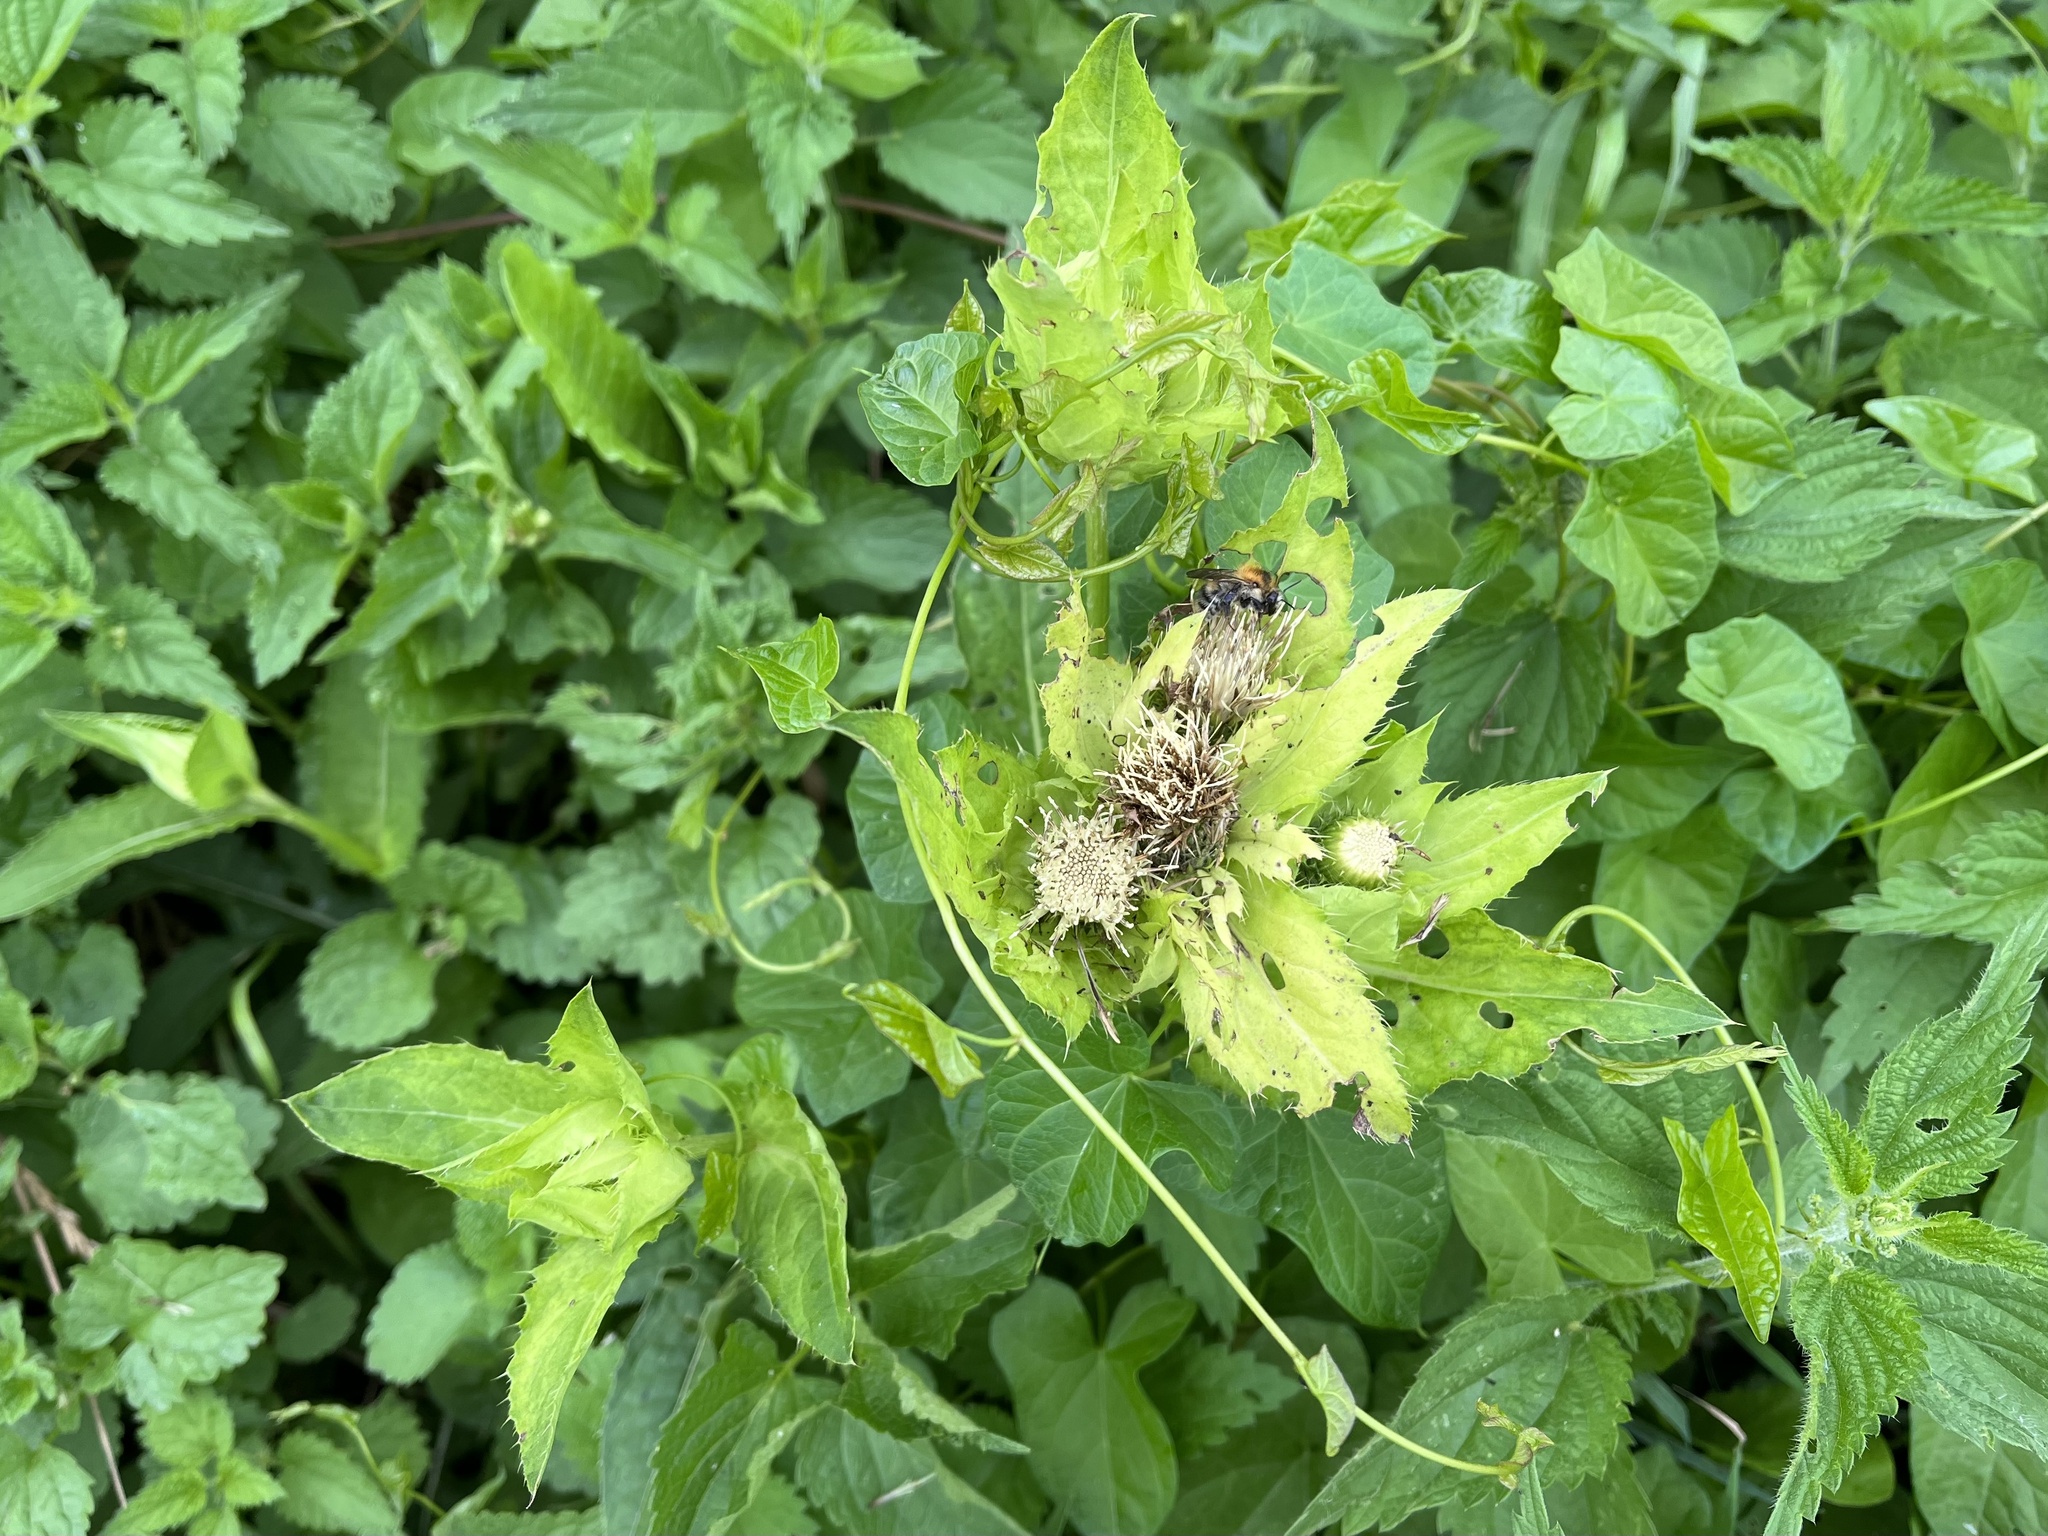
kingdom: Plantae
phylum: Tracheophyta
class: Magnoliopsida
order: Asterales
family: Asteraceae
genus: Cirsium
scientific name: Cirsium oleraceum
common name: Cabbage thistle
